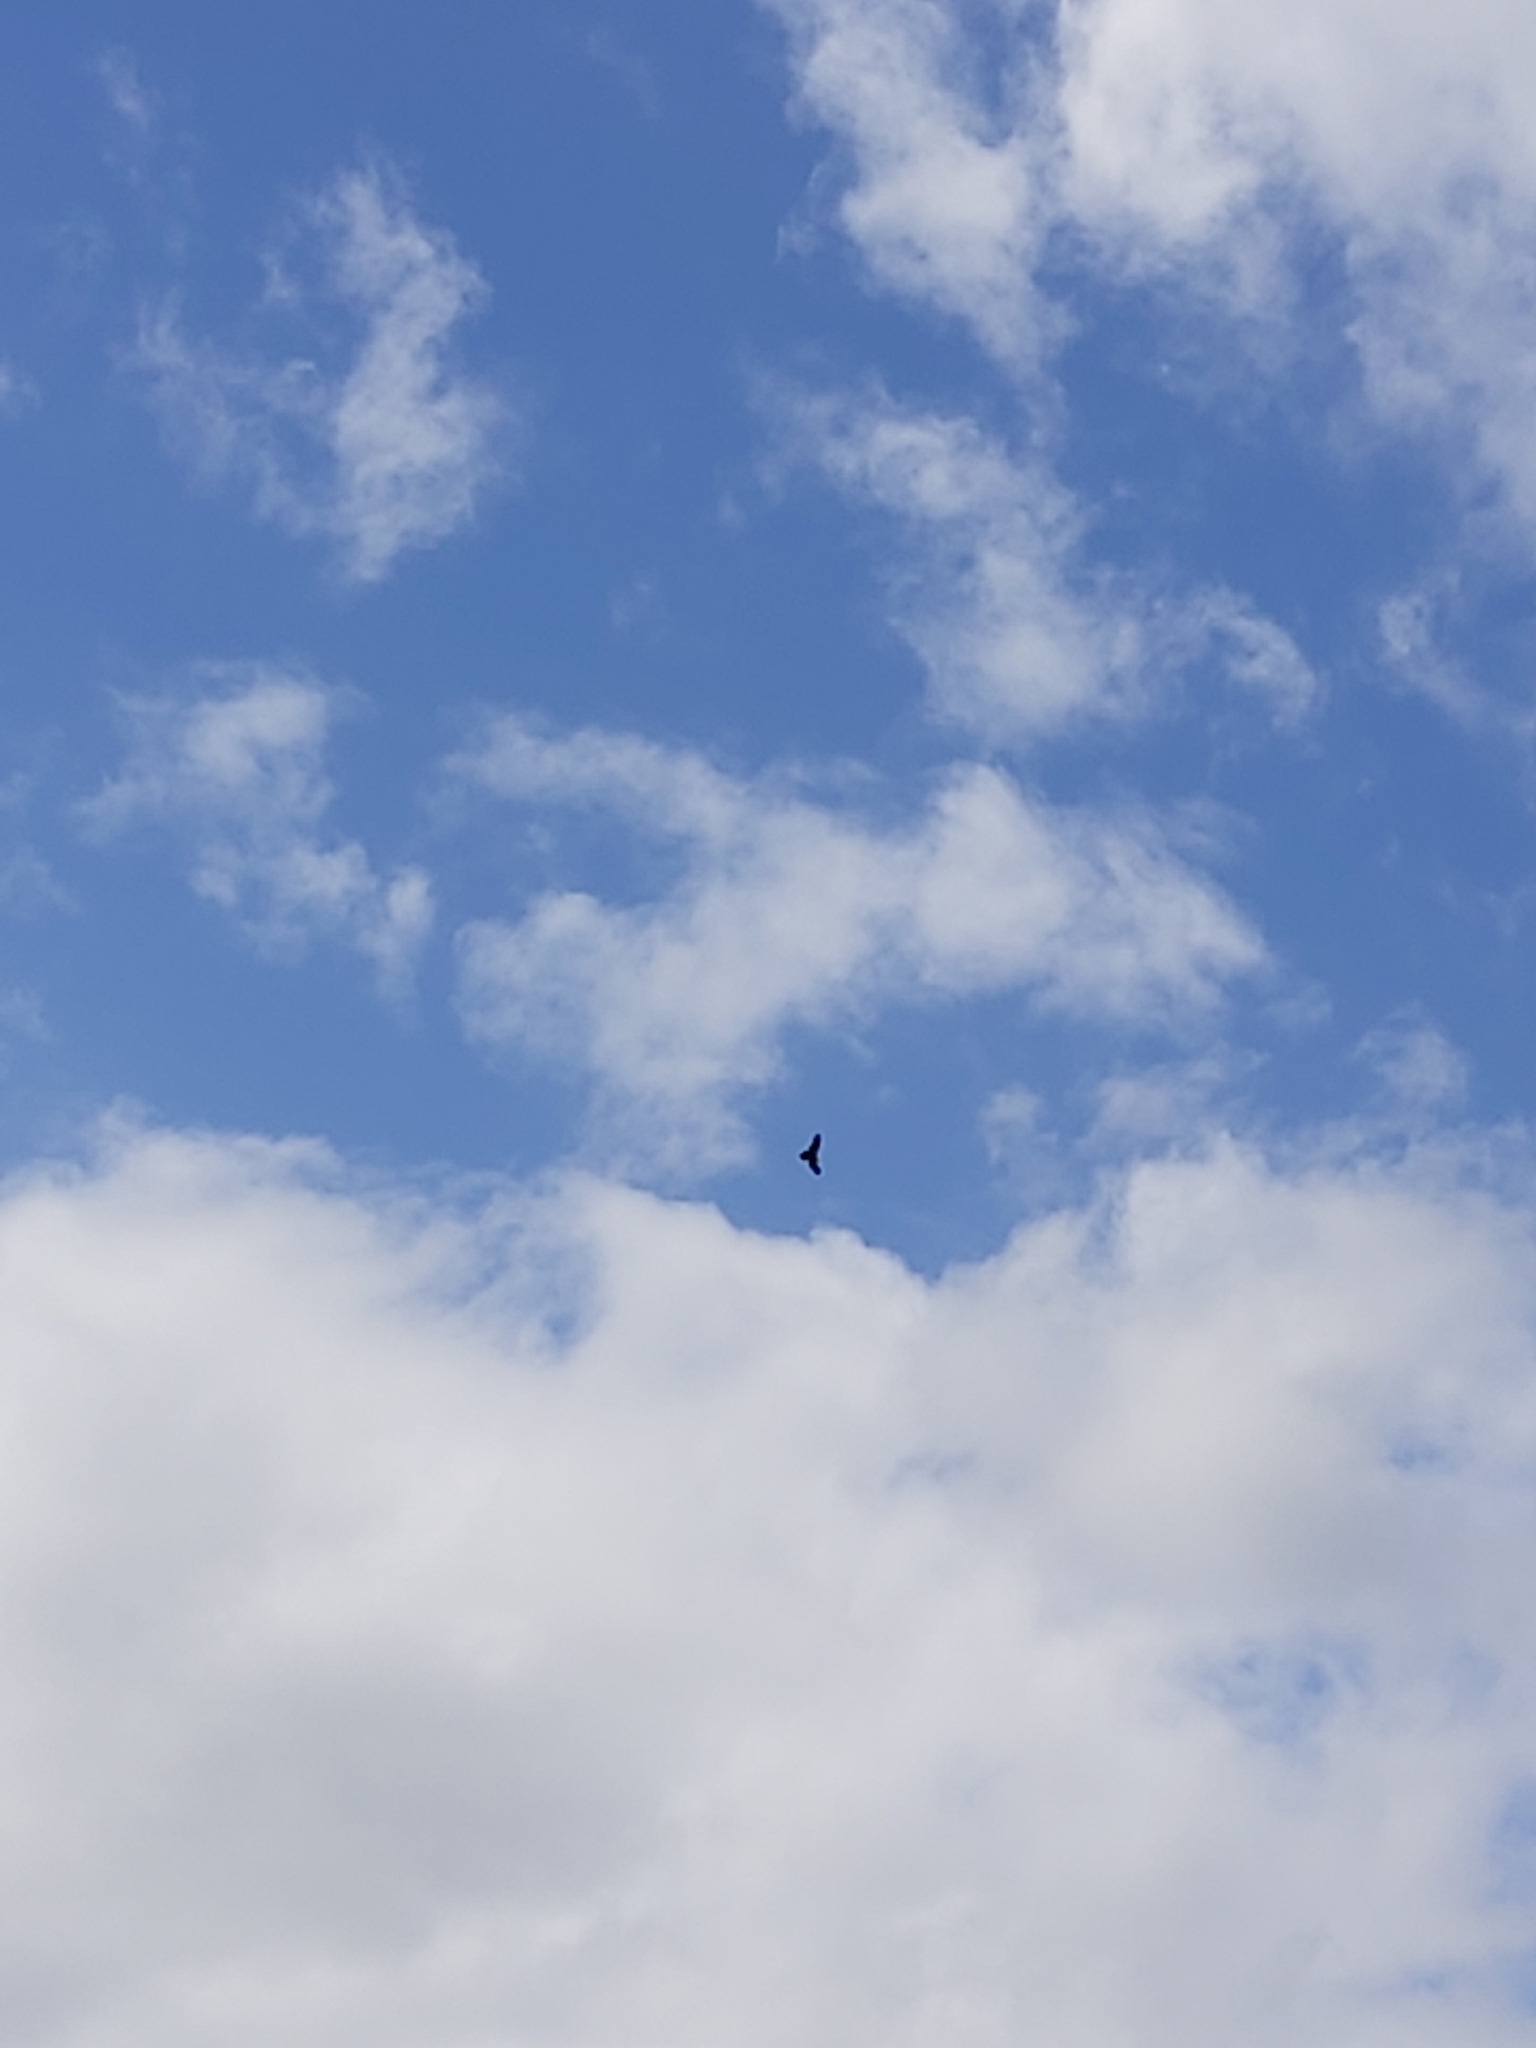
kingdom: Animalia
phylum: Chordata
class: Aves
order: Accipitriformes
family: Accipitridae
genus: Aquila
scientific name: Aquila audax
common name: Wedge-tailed eagle
